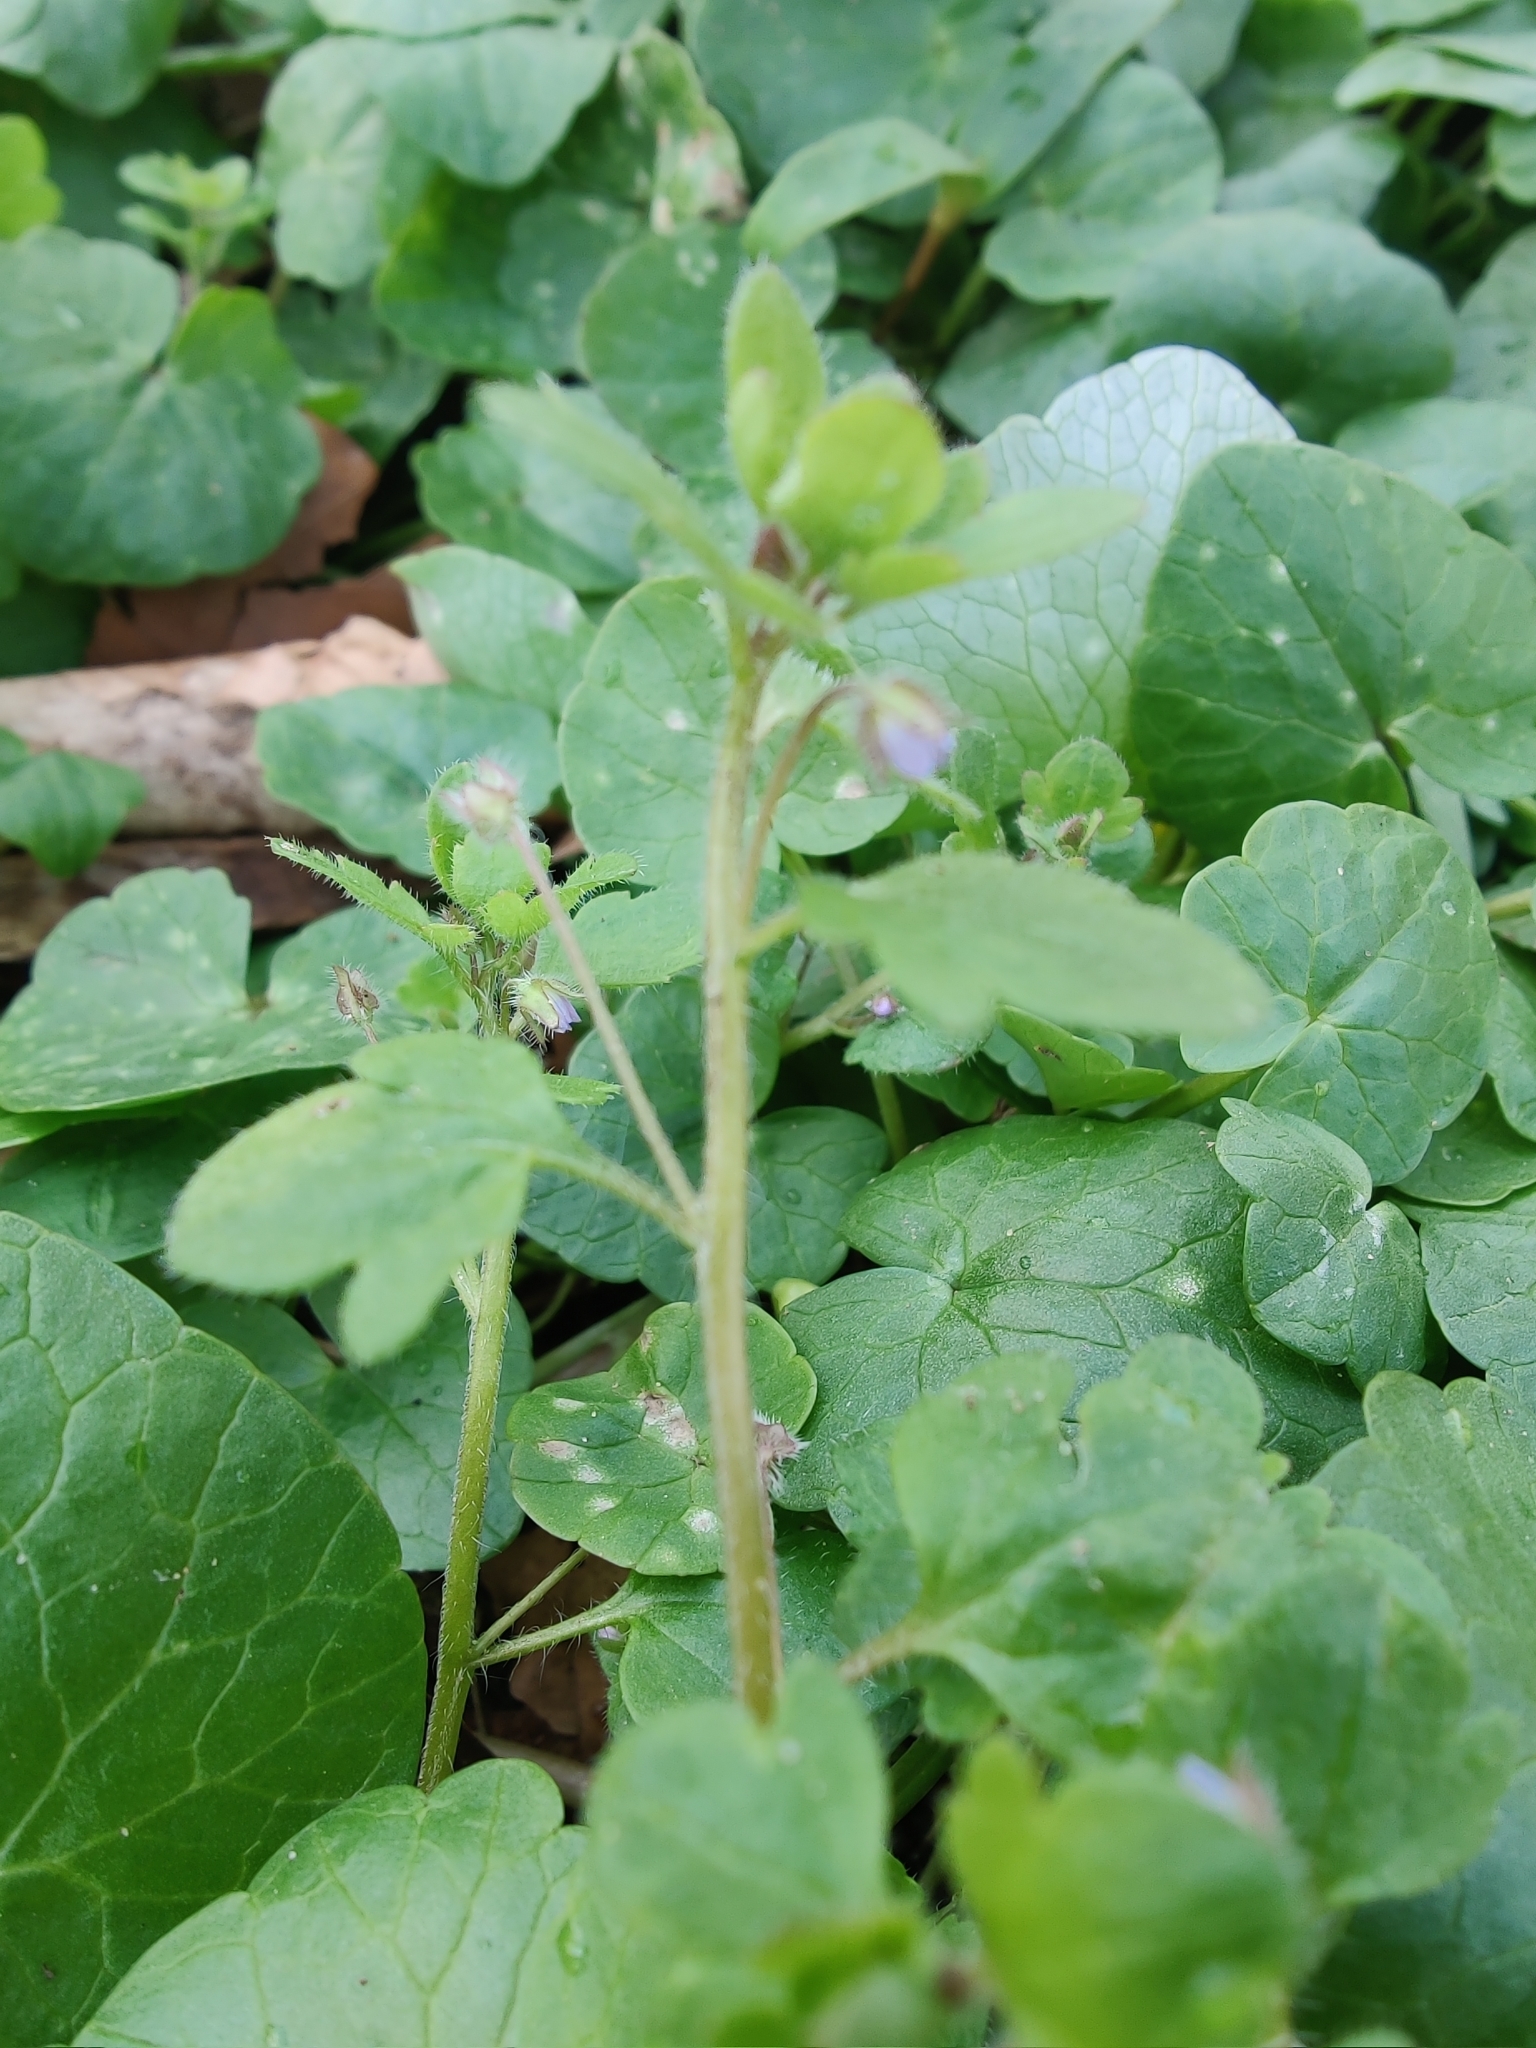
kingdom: Plantae
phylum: Tracheophyta
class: Magnoliopsida
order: Lamiales
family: Plantaginaceae
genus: Veronica
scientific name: Veronica sublobata
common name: False ivy-leaved speedwell
